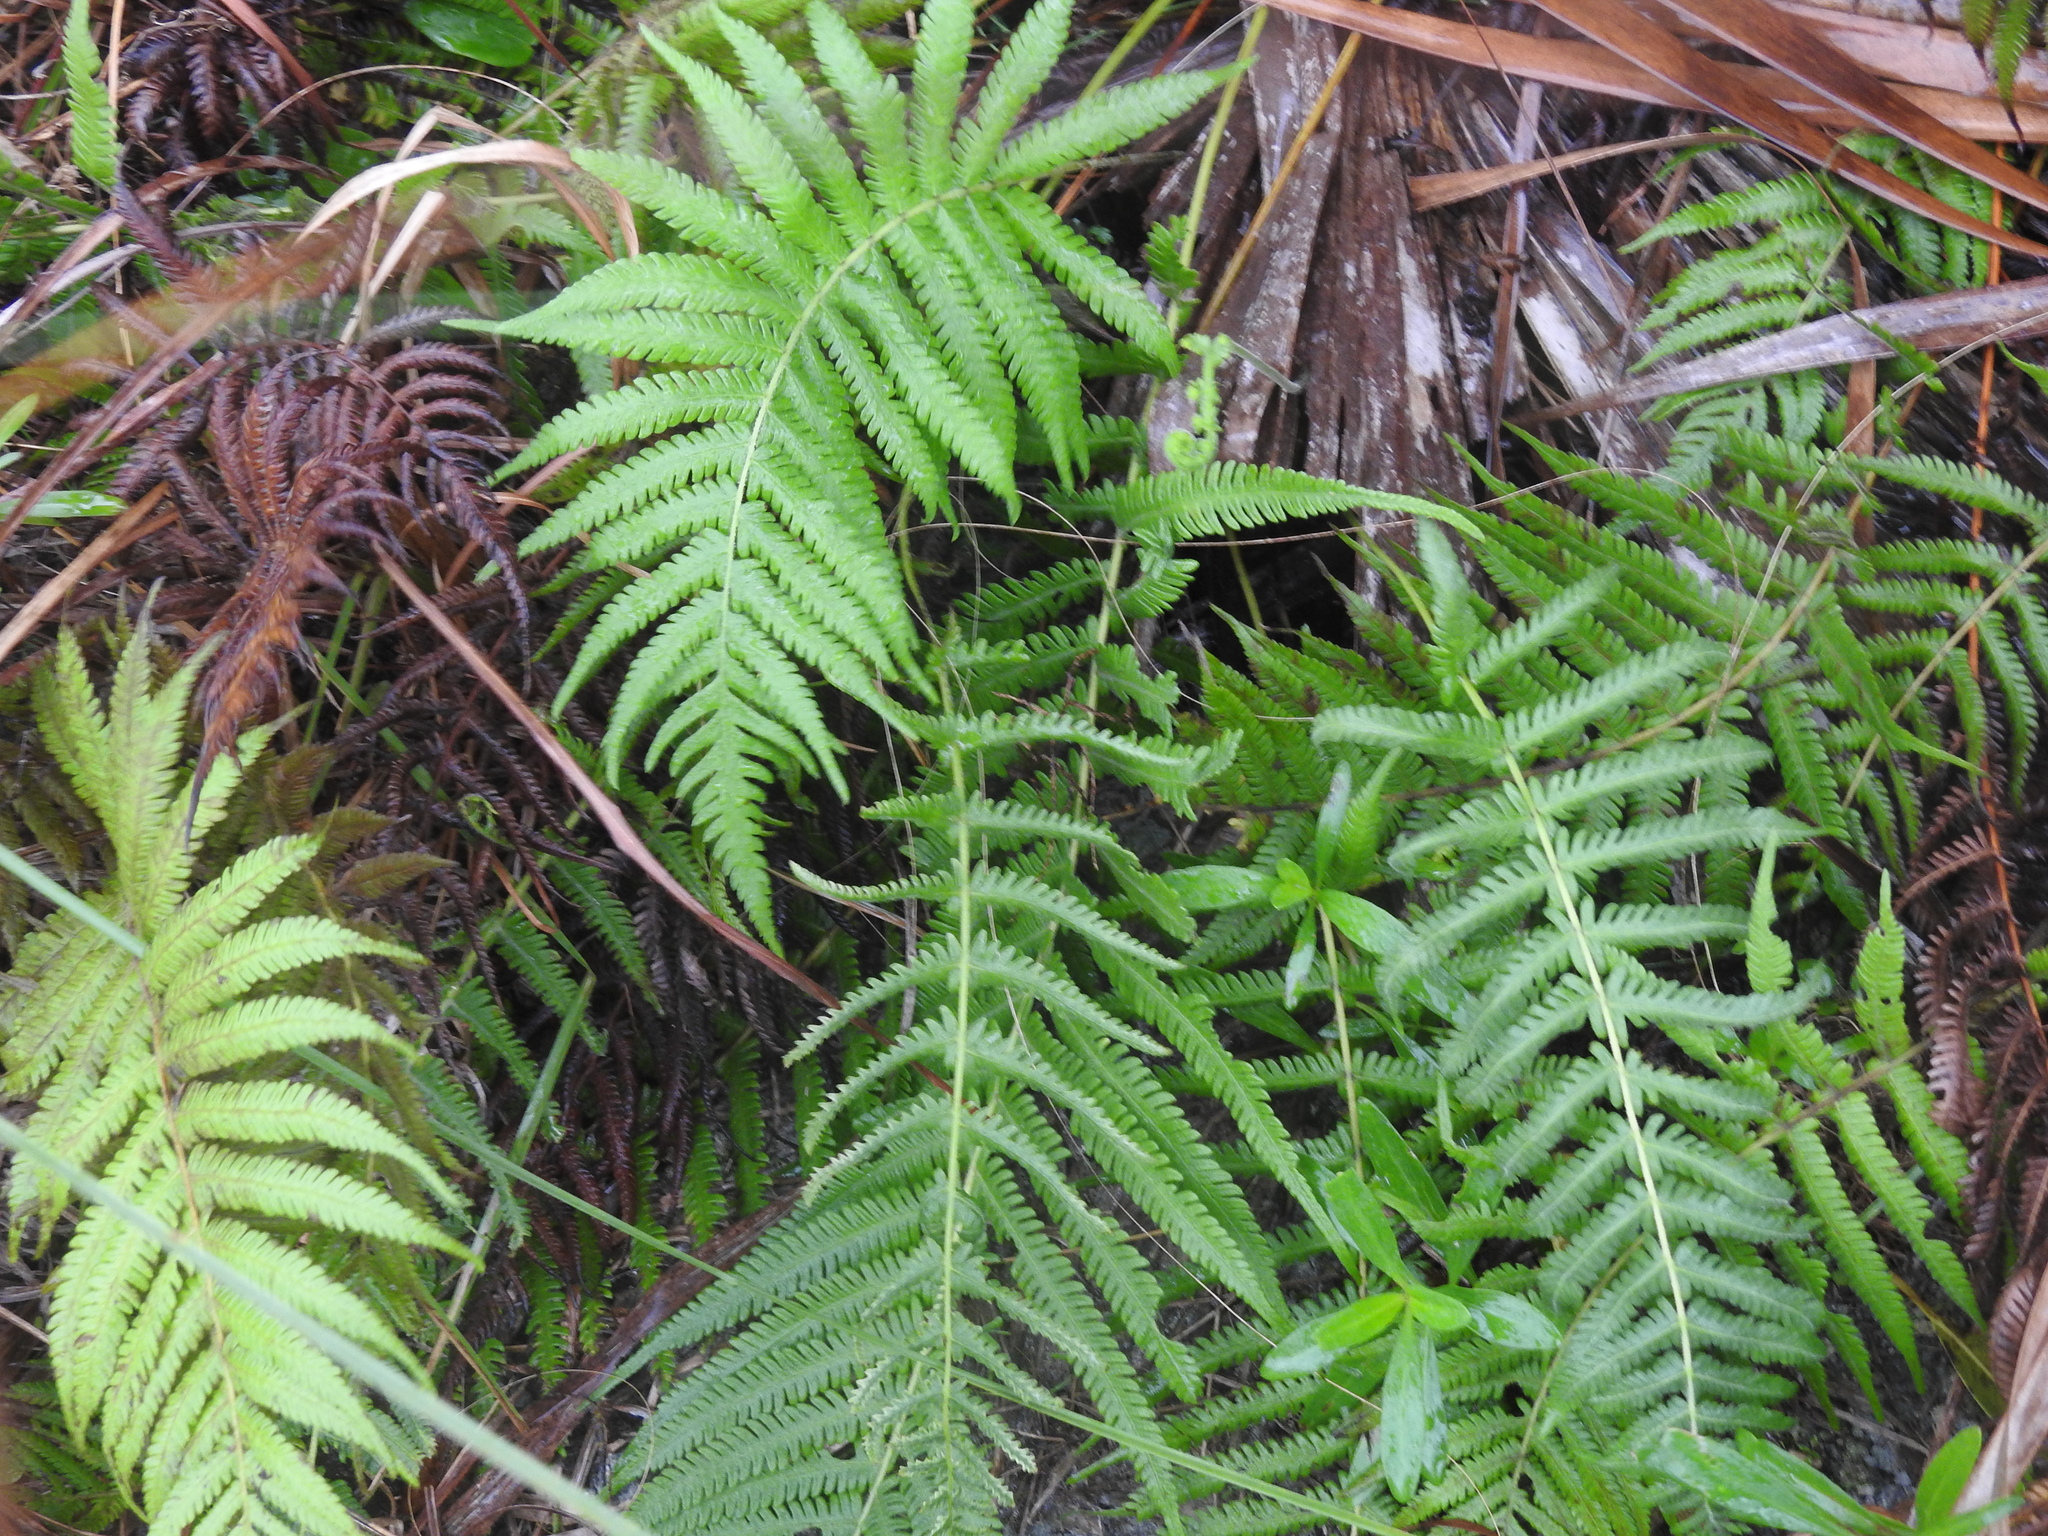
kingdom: Plantae
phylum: Tracheophyta
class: Polypodiopsida
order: Polypodiales
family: Thelypteridaceae
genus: Pelazoneuron
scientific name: Pelazoneuron kunthii
